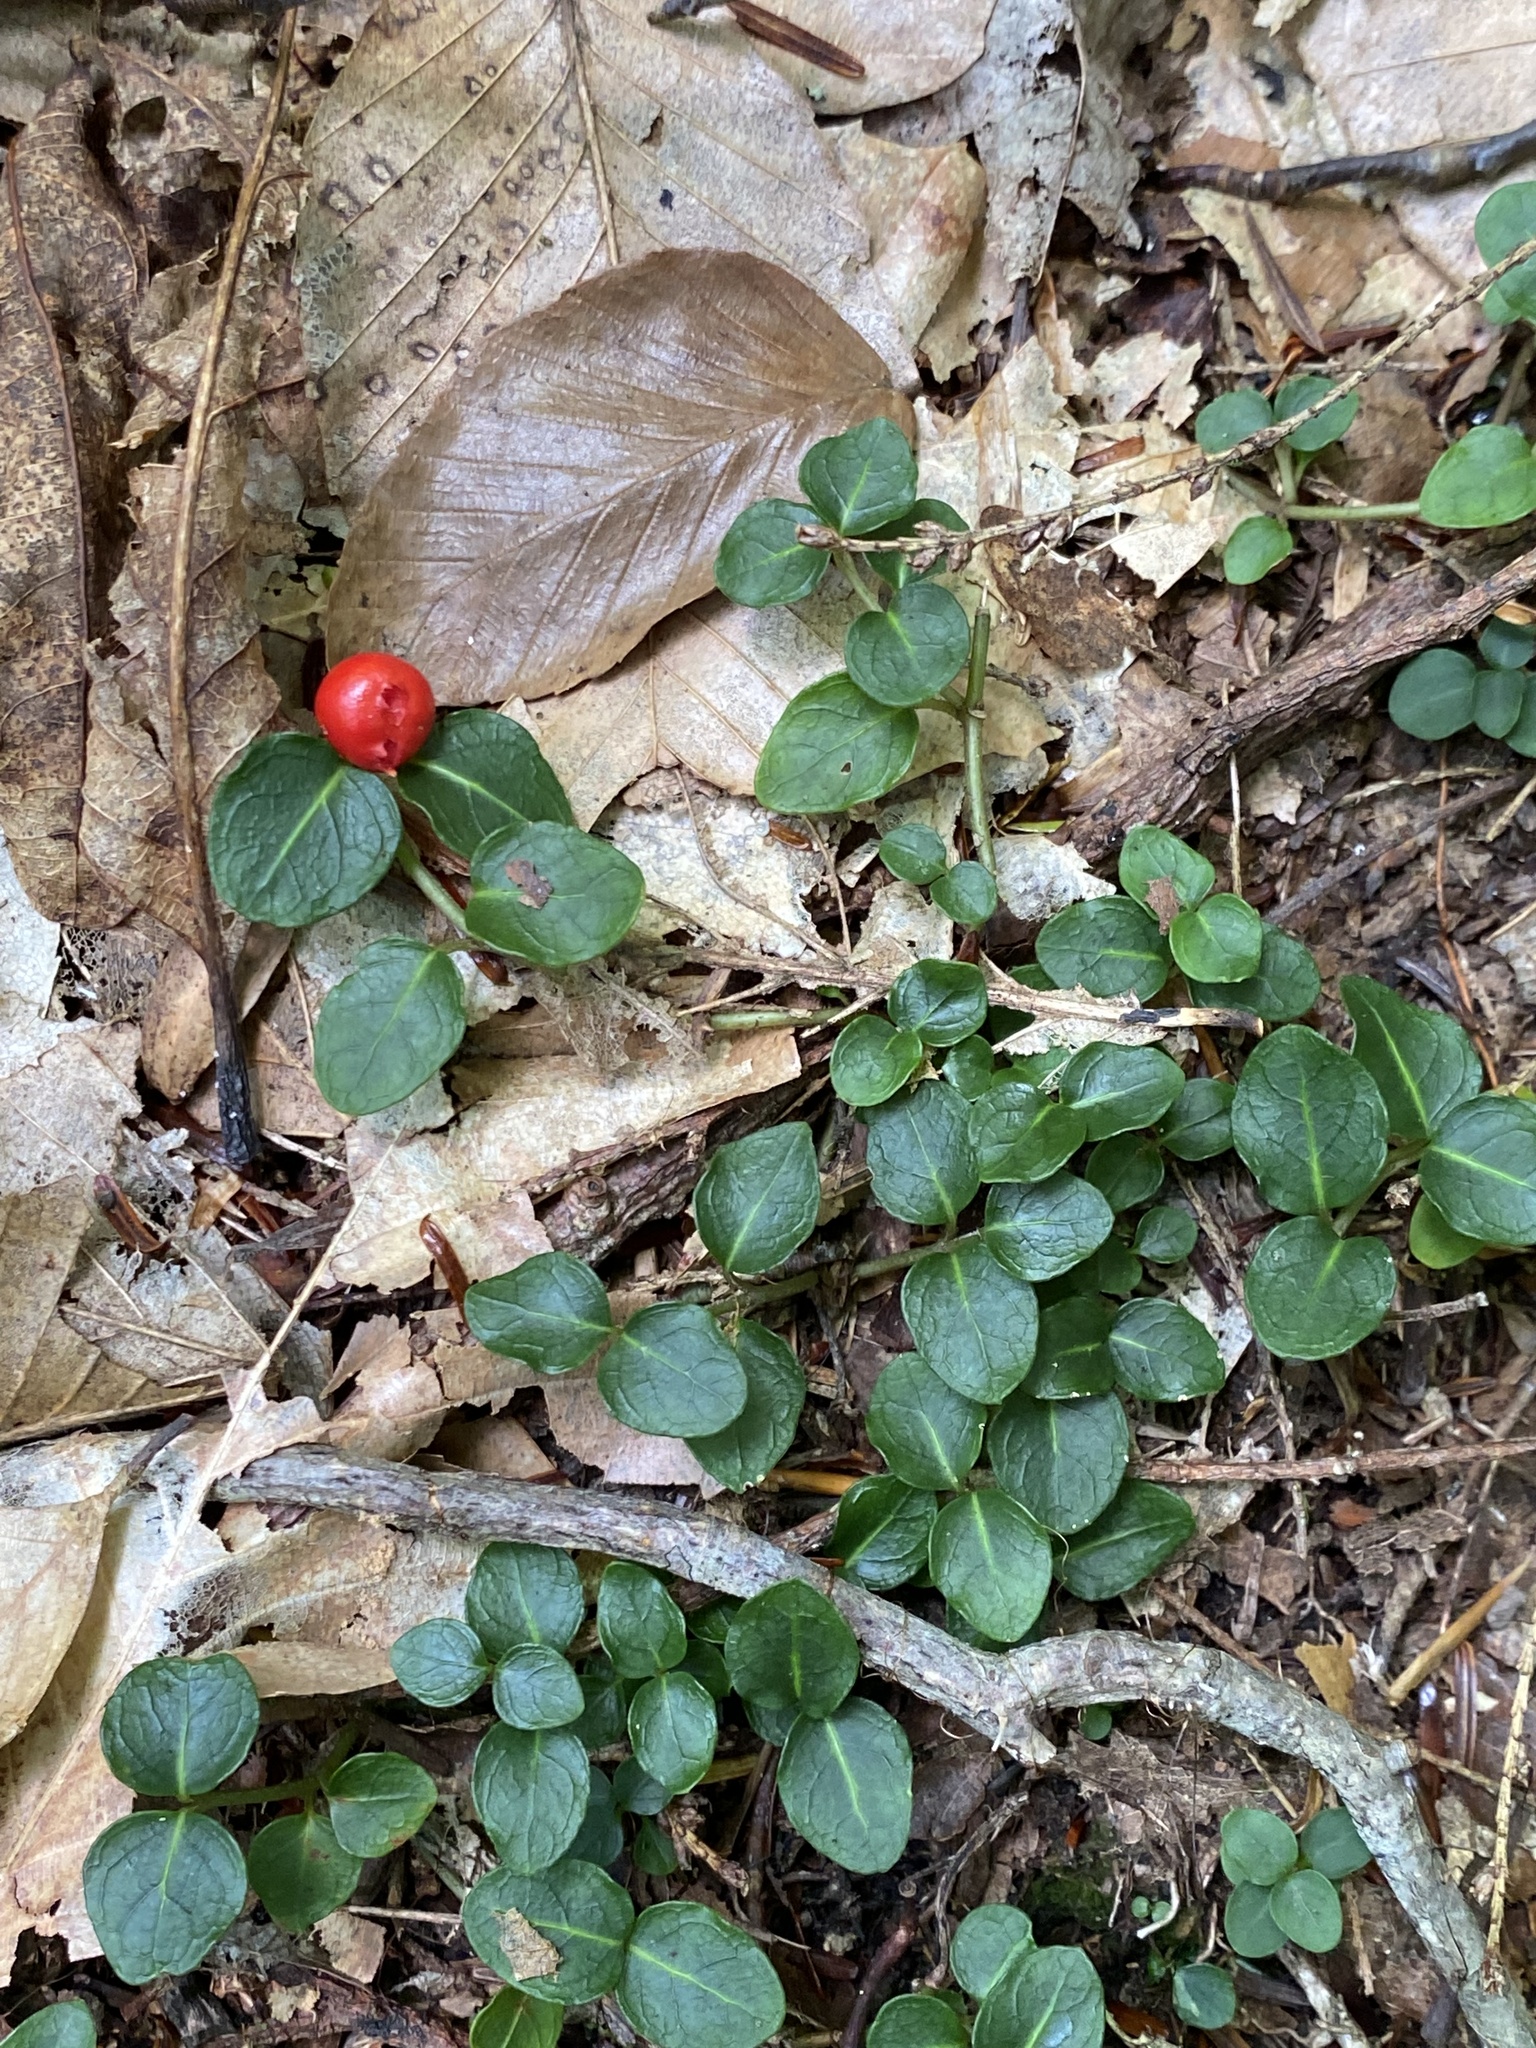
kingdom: Plantae
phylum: Tracheophyta
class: Magnoliopsida
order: Gentianales
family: Rubiaceae
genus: Mitchella
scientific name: Mitchella repens
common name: Partridge-berry
